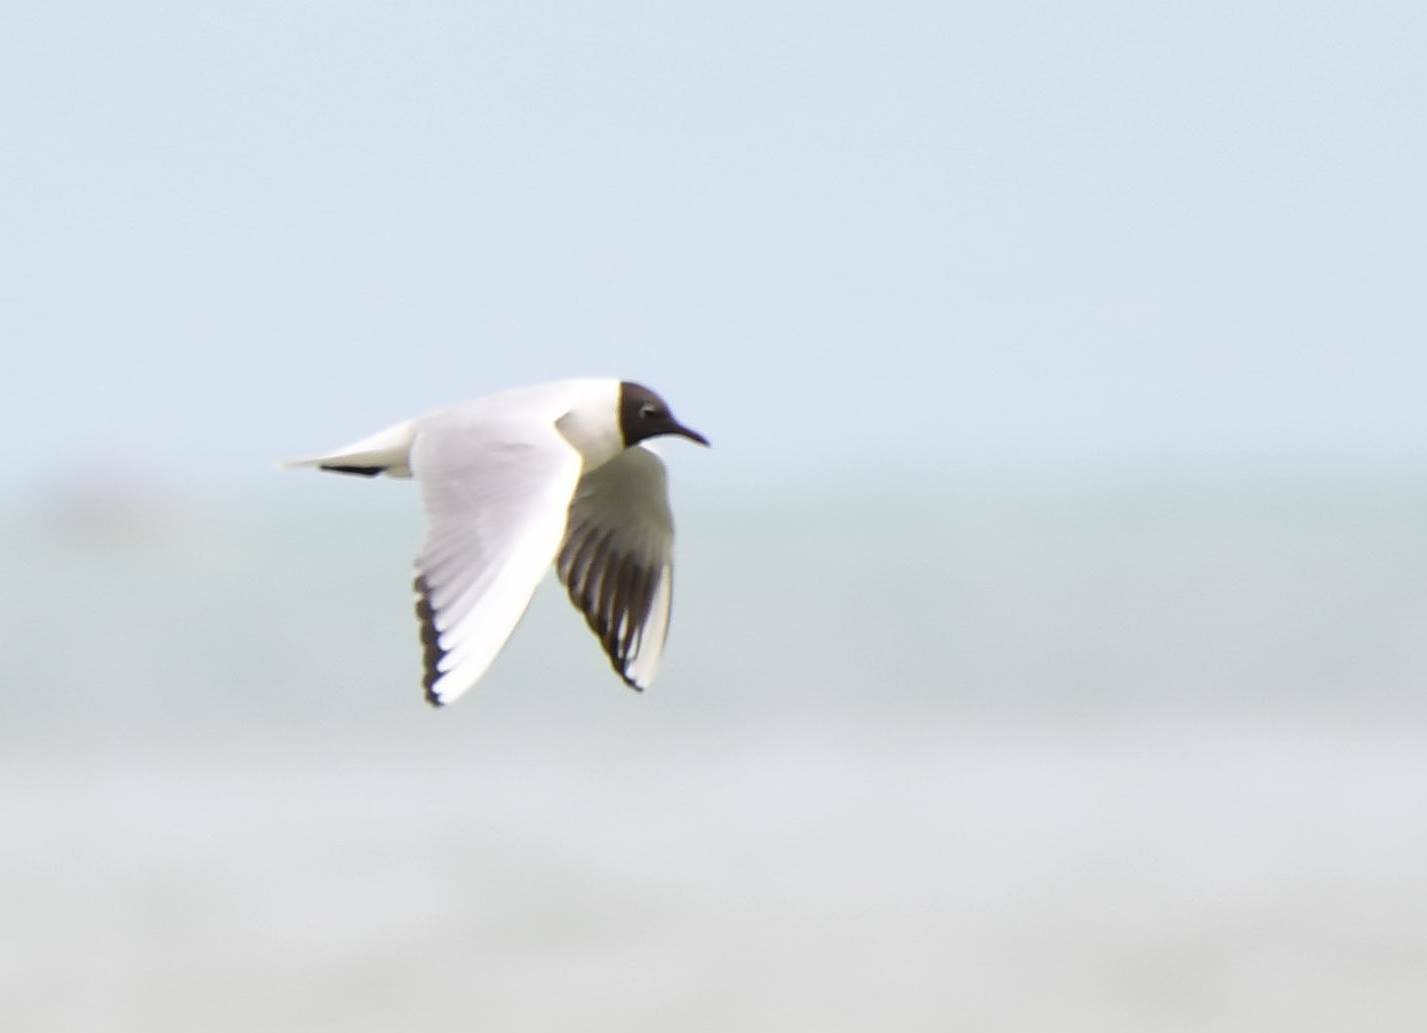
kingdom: Animalia
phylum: Chordata
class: Aves
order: Charadriiformes
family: Laridae
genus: Chroicocephalus
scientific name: Chroicocephalus ridibundus
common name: Black-headed gull
